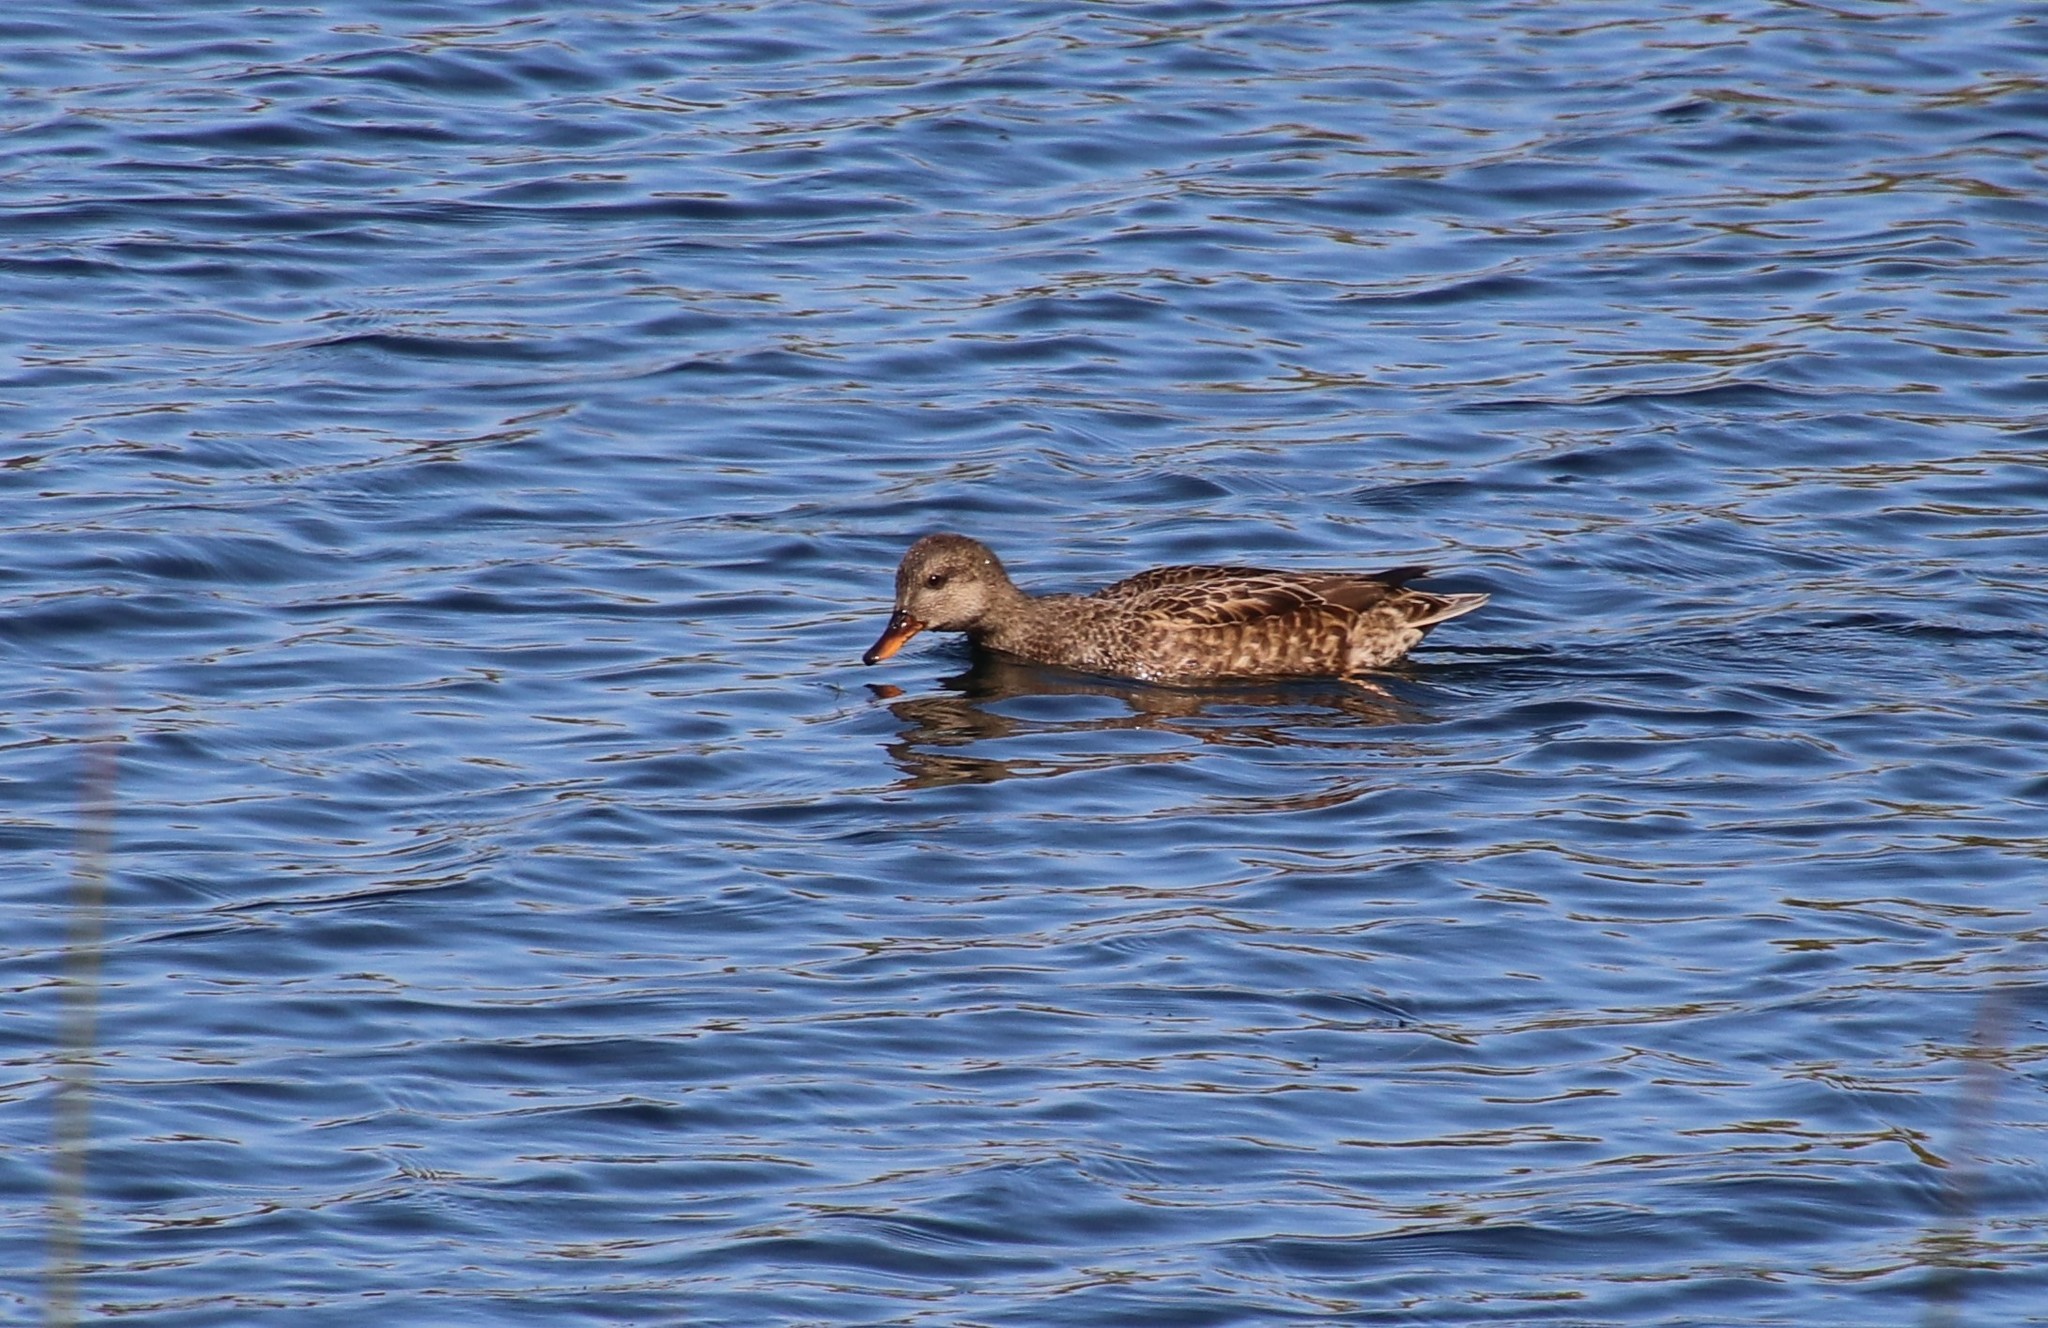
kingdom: Animalia
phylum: Chordata
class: Aves
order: Anseriformes
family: Anatidae
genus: Mareca
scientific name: Mareca strepera
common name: Gadwall
